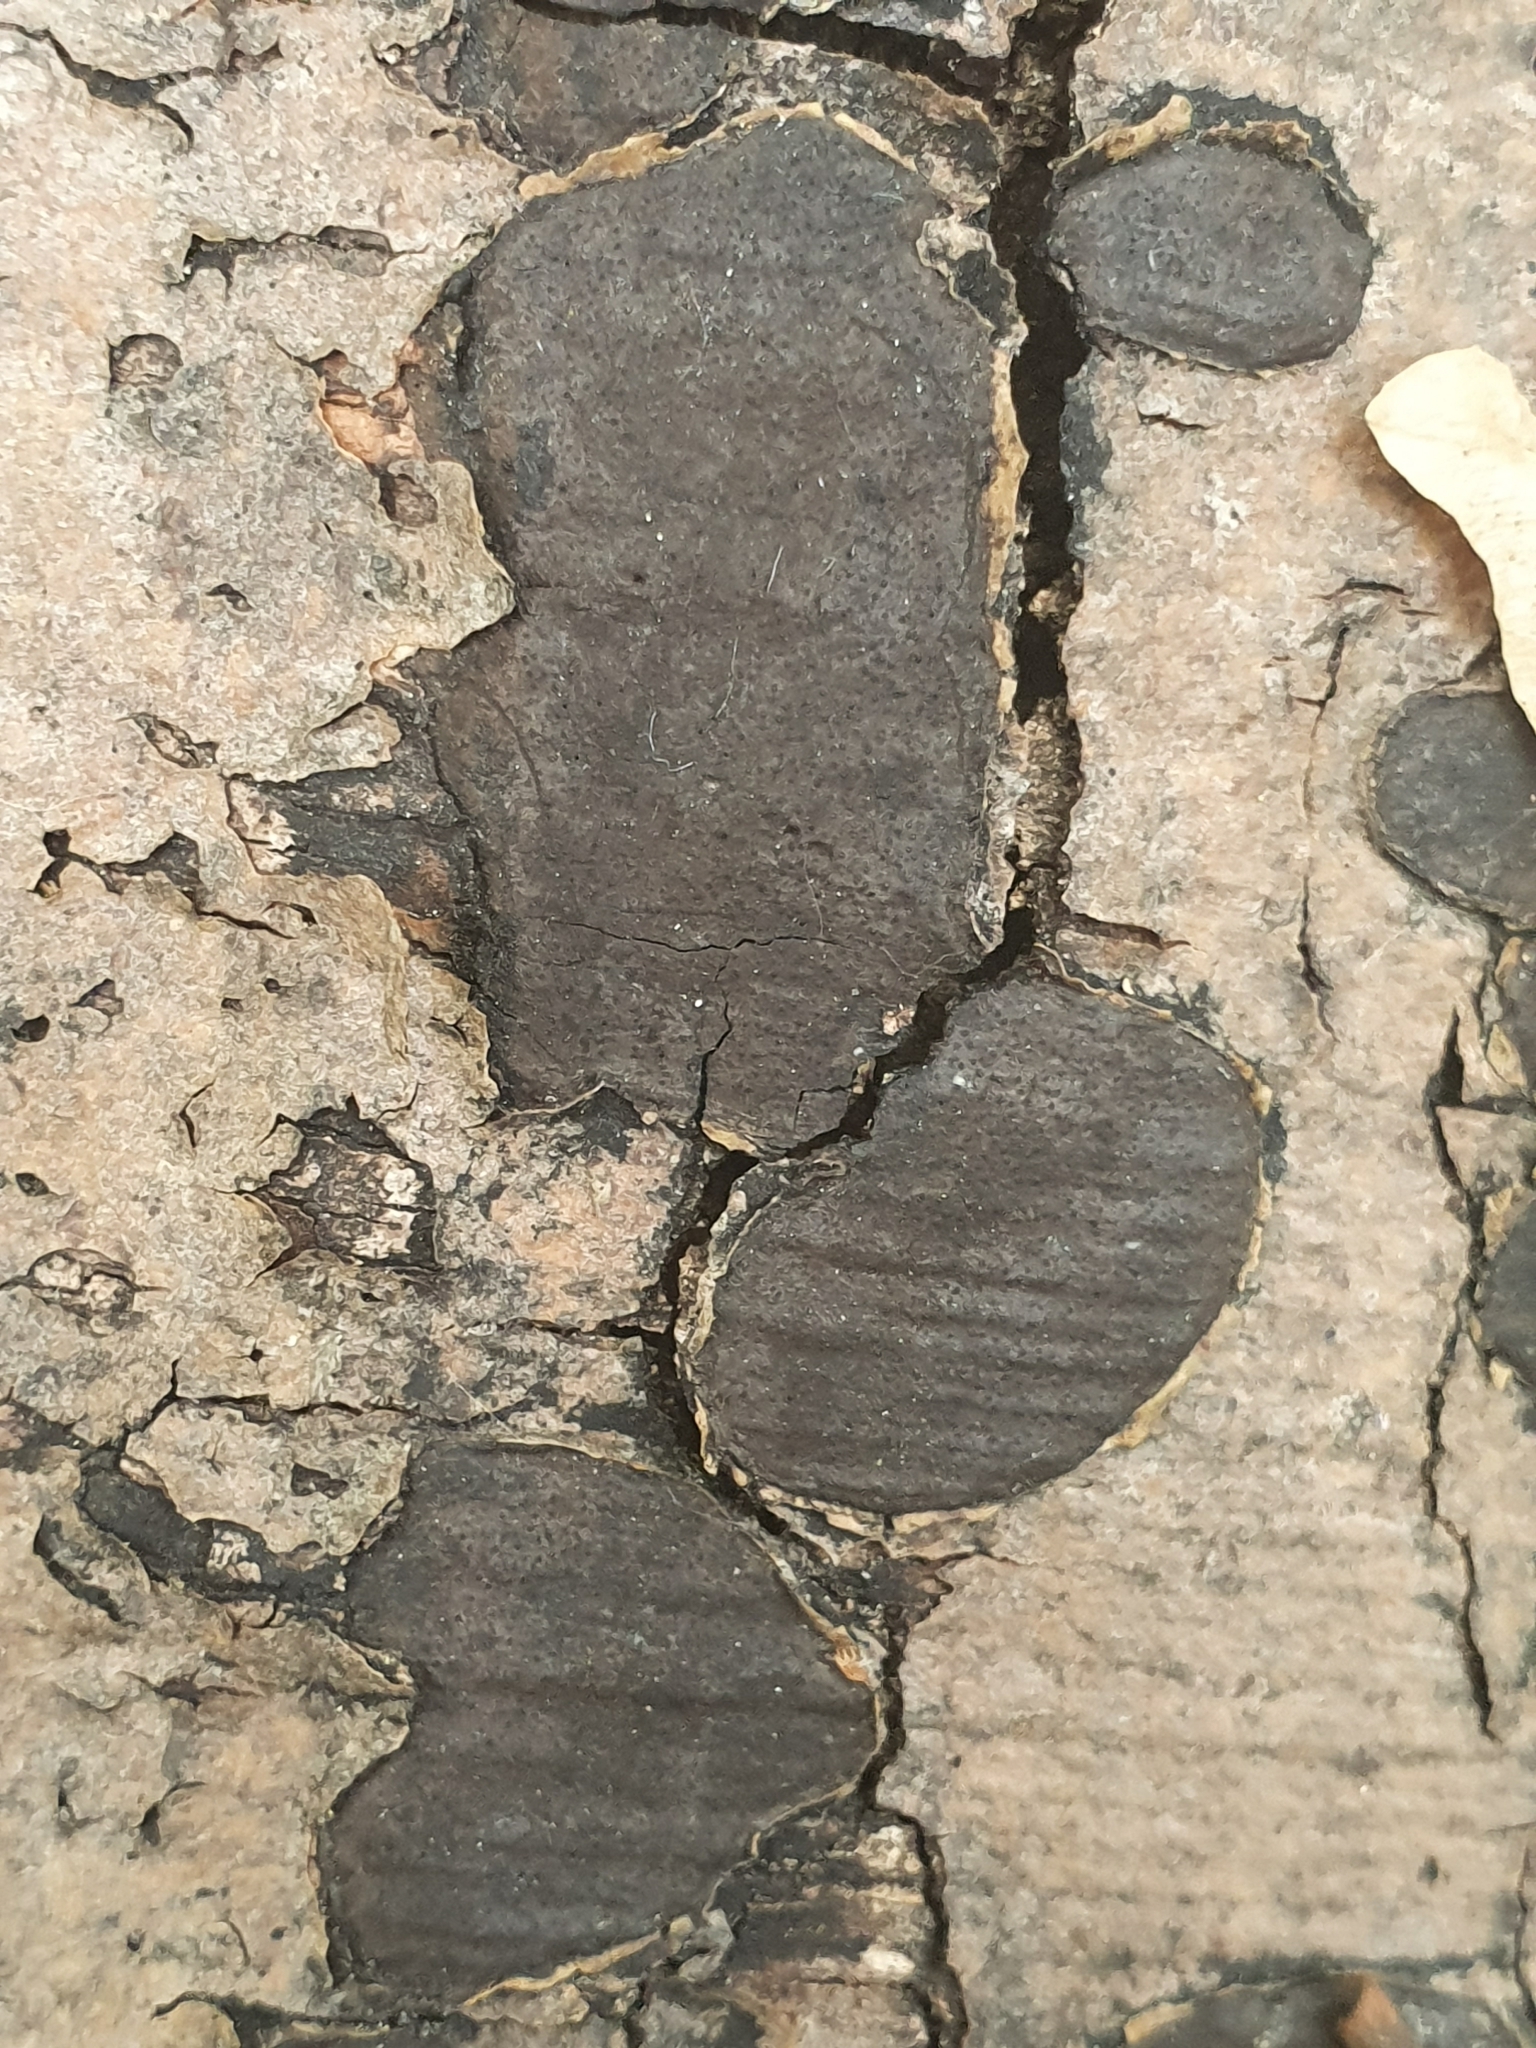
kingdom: Fungi
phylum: Ascomycota
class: Sordariomycetes
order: Xylariales
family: Graphostromataceae
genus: Biscogniauxia
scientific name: Biscogniauxia nummularia
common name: Beech tarcrust
